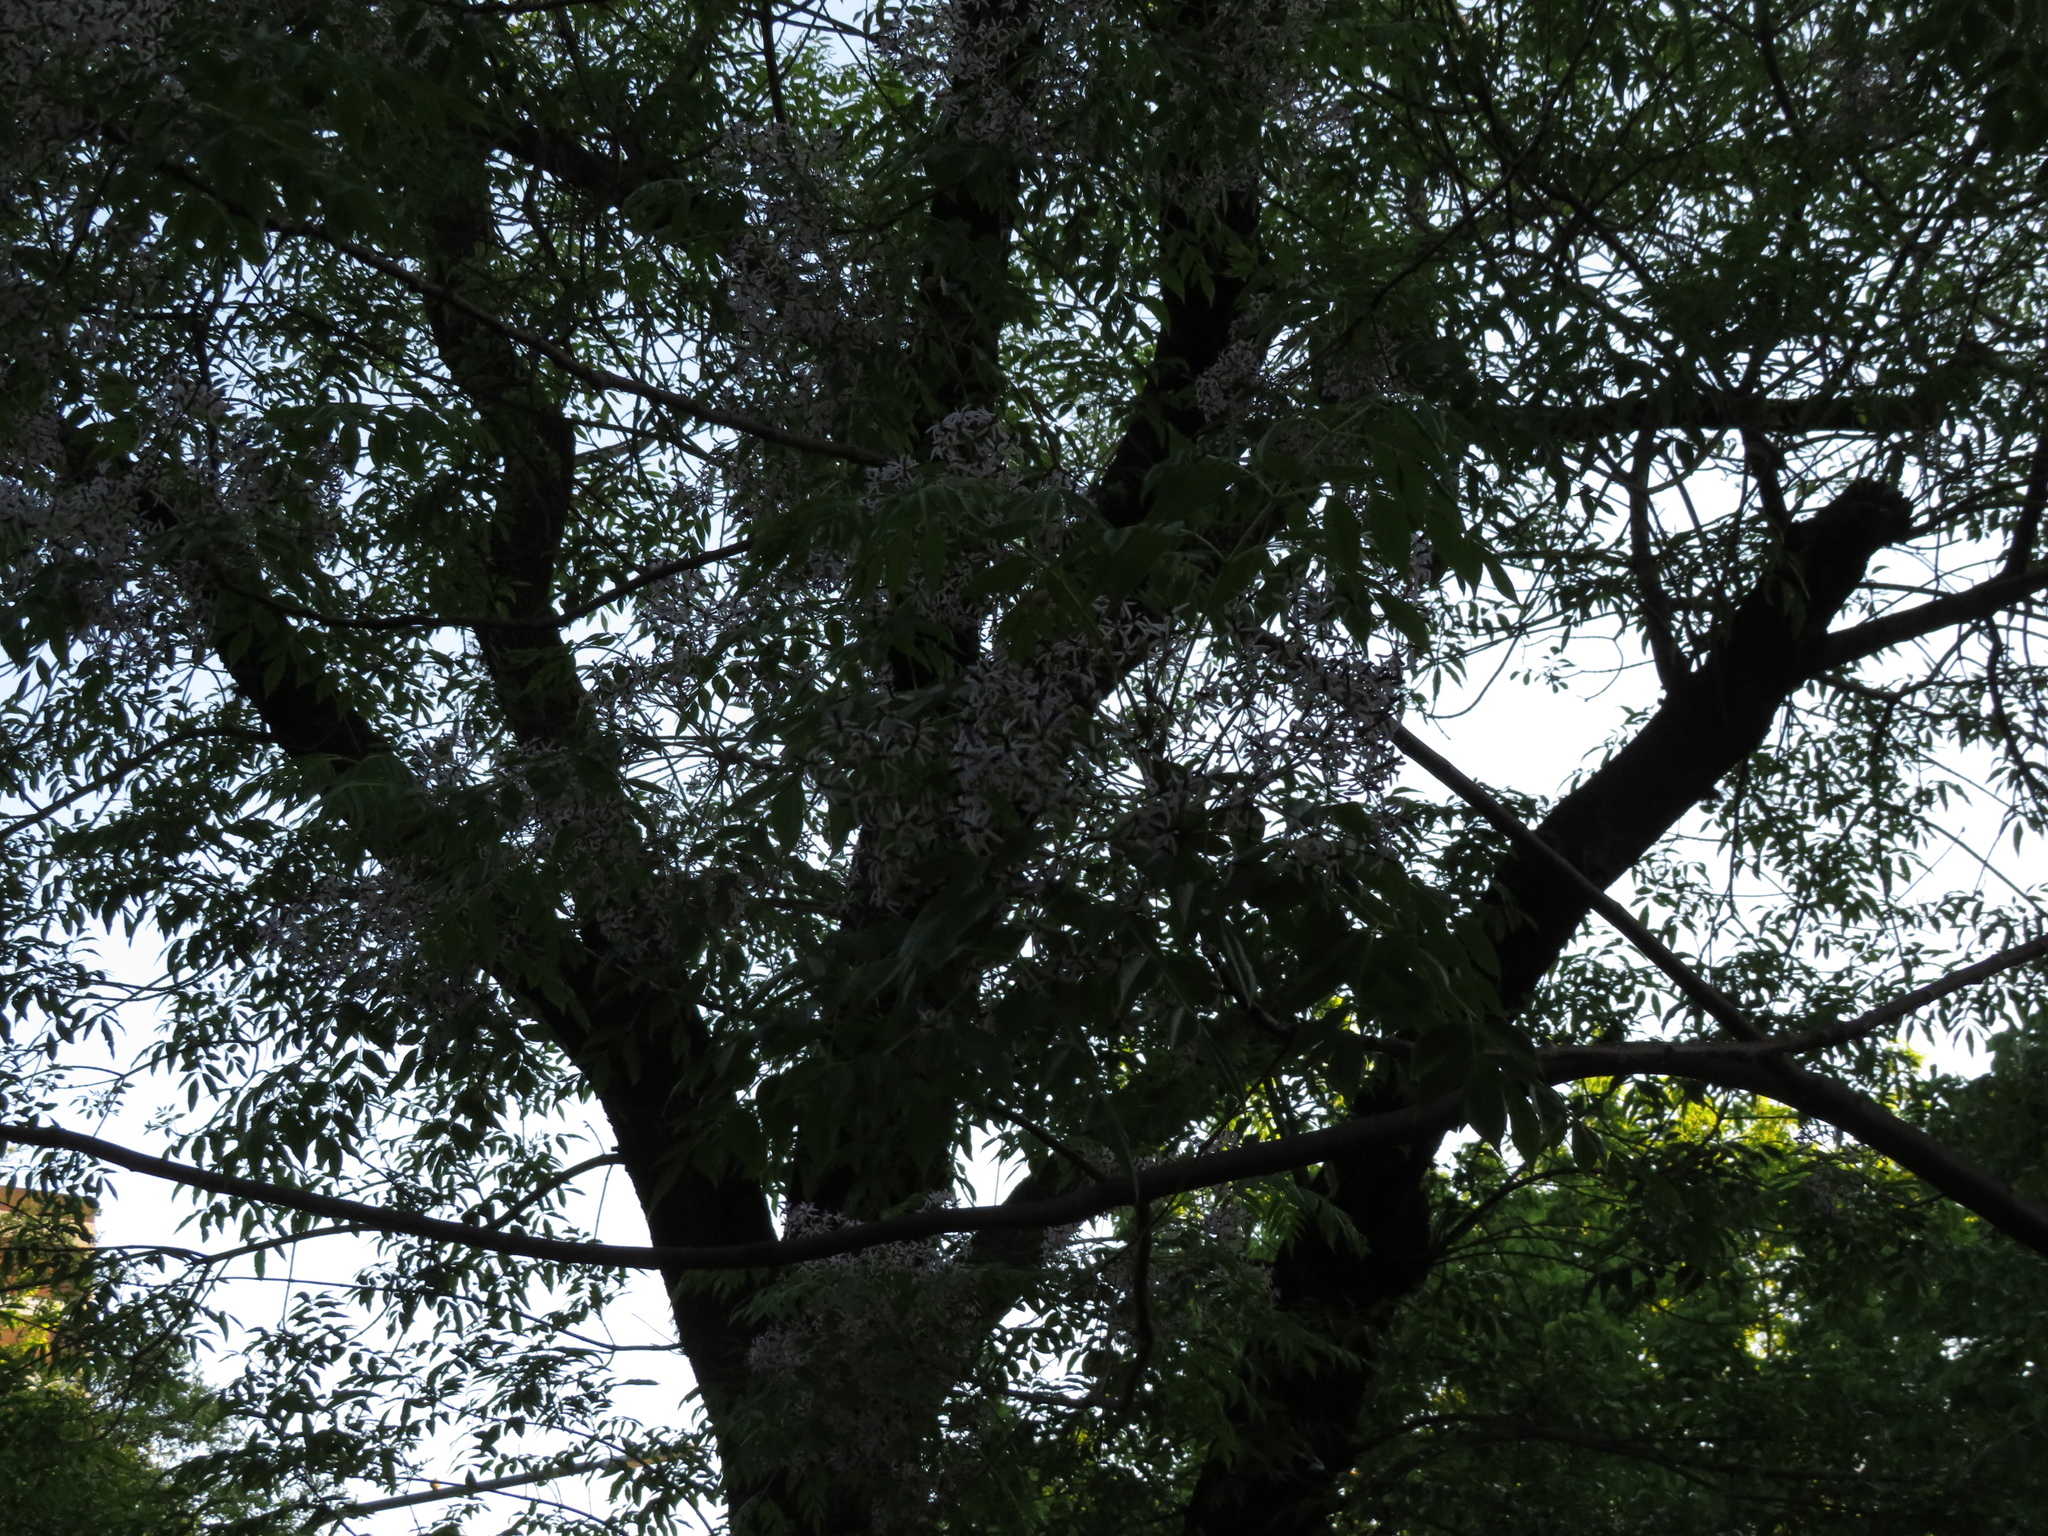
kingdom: Plantae
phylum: Tracheophyta
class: Magnoliopsida
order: Sapindales
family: Meliaceae
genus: Melia
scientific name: Melia azedarach
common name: Chinaberrytree
